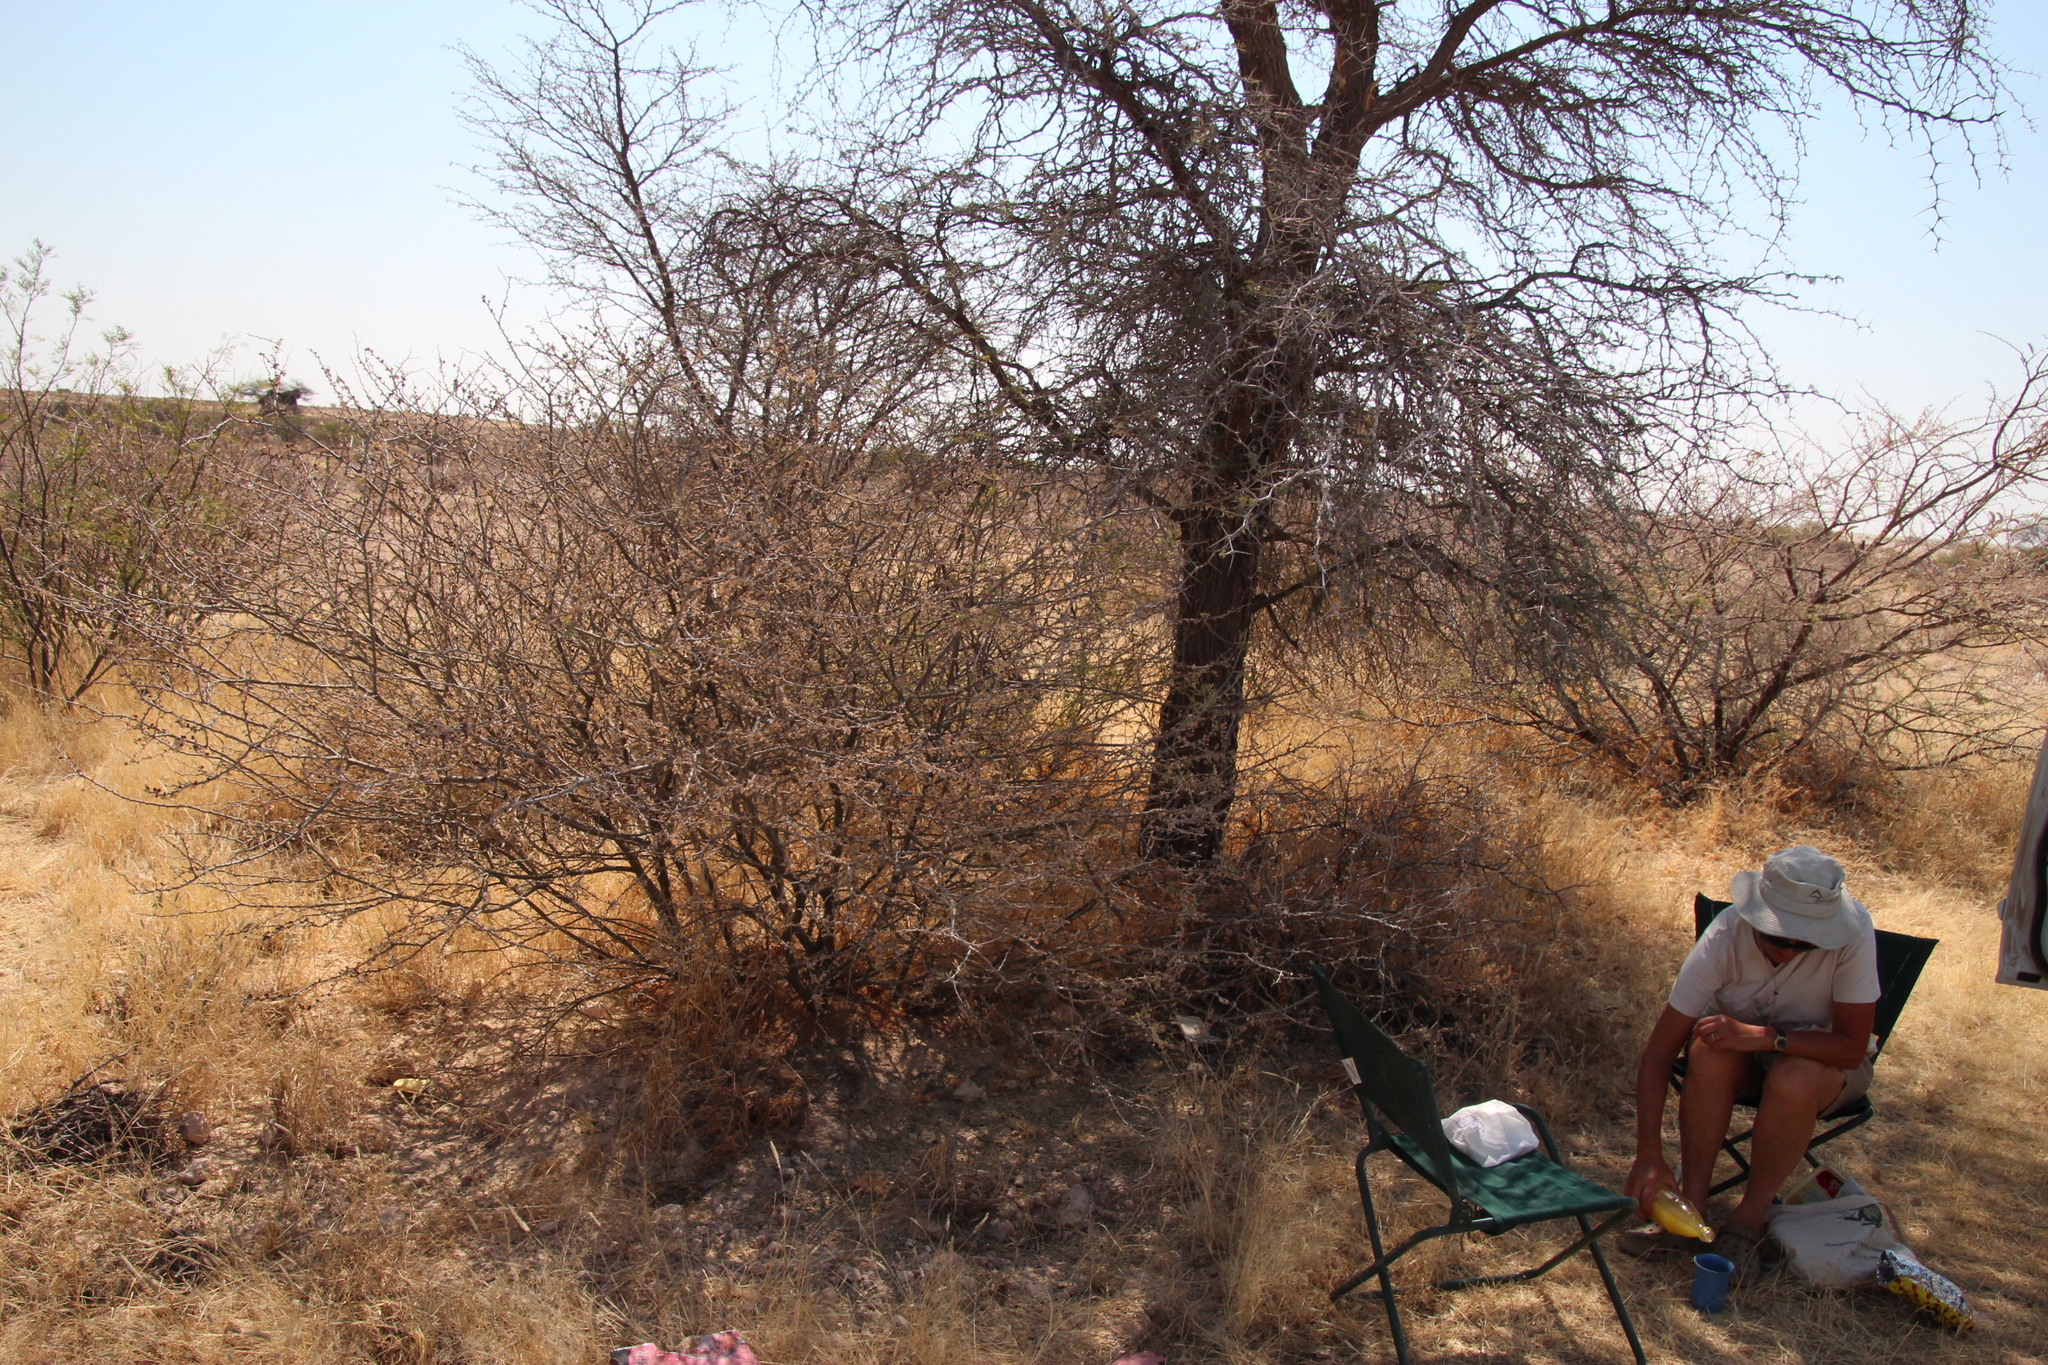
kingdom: Plantae
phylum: Tracheophyta
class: Magnoliopsida
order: Fabales
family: Fabaceae
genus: Senegalia
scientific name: Senegalia mellifera
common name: Hookthorn
